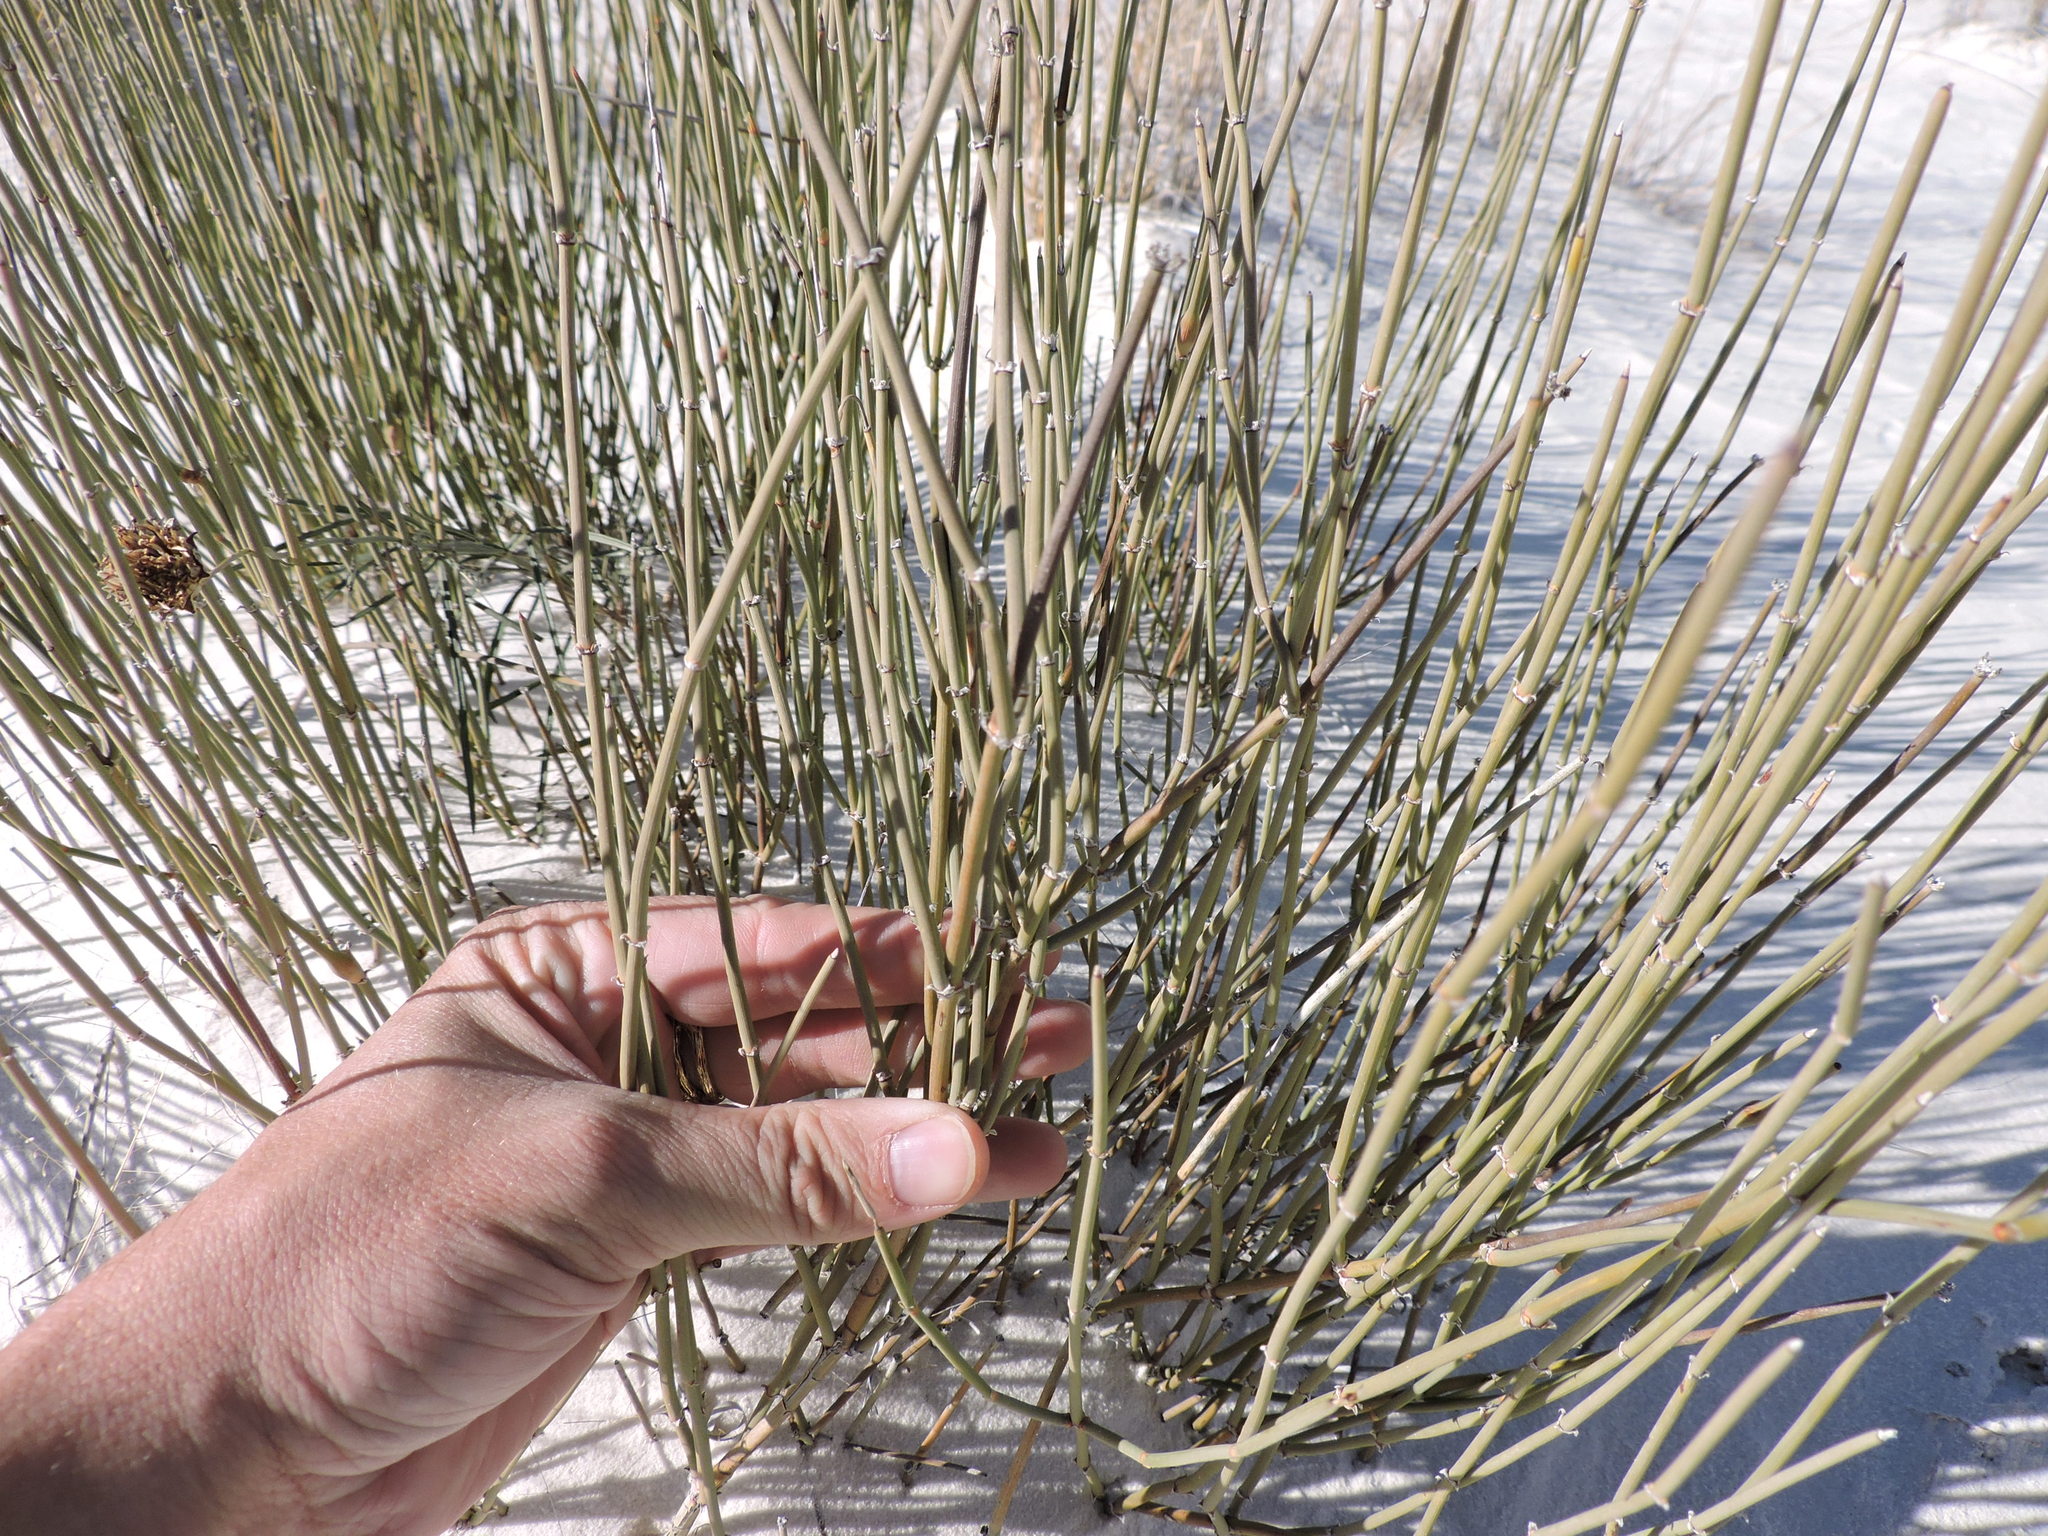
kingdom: Plantae
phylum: Tracheophyta
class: Gnetopsida
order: Ephedrales
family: Ephedraceae
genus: Ephedra
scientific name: Ephedra torreyana
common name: Torrey ephedra
